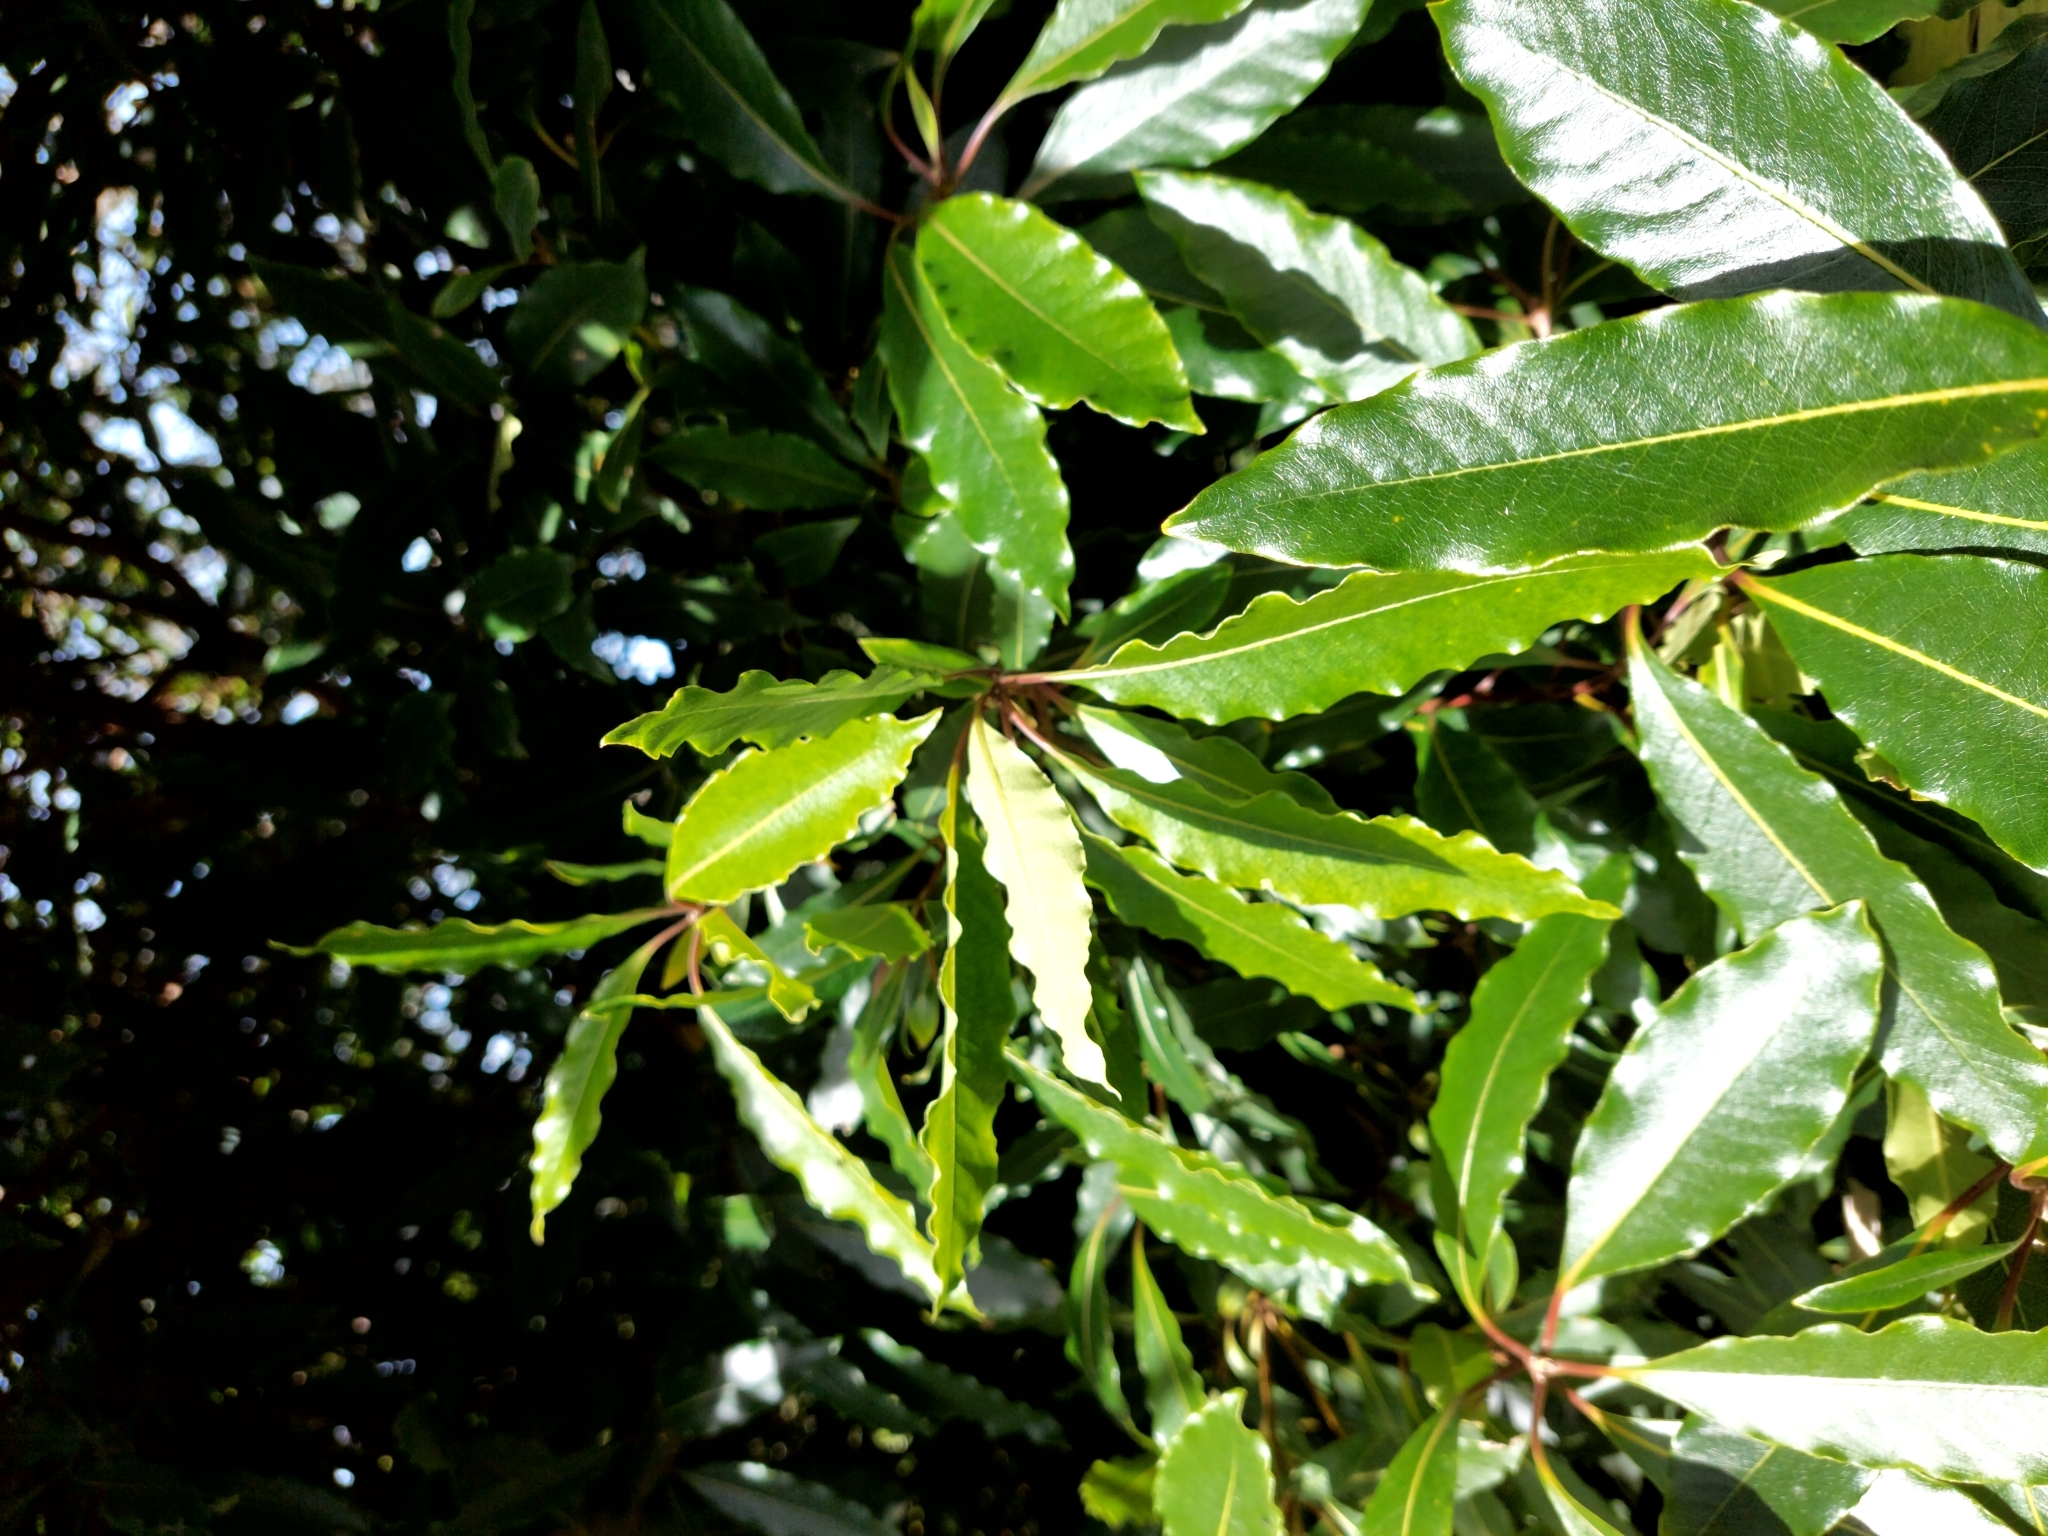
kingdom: Plantae
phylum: Tracheophyta
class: Magnoliopsida
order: Apiales
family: Pittosporaceae
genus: Pittosporum
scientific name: Pittosporum undulatum
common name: Australian cheesewood
